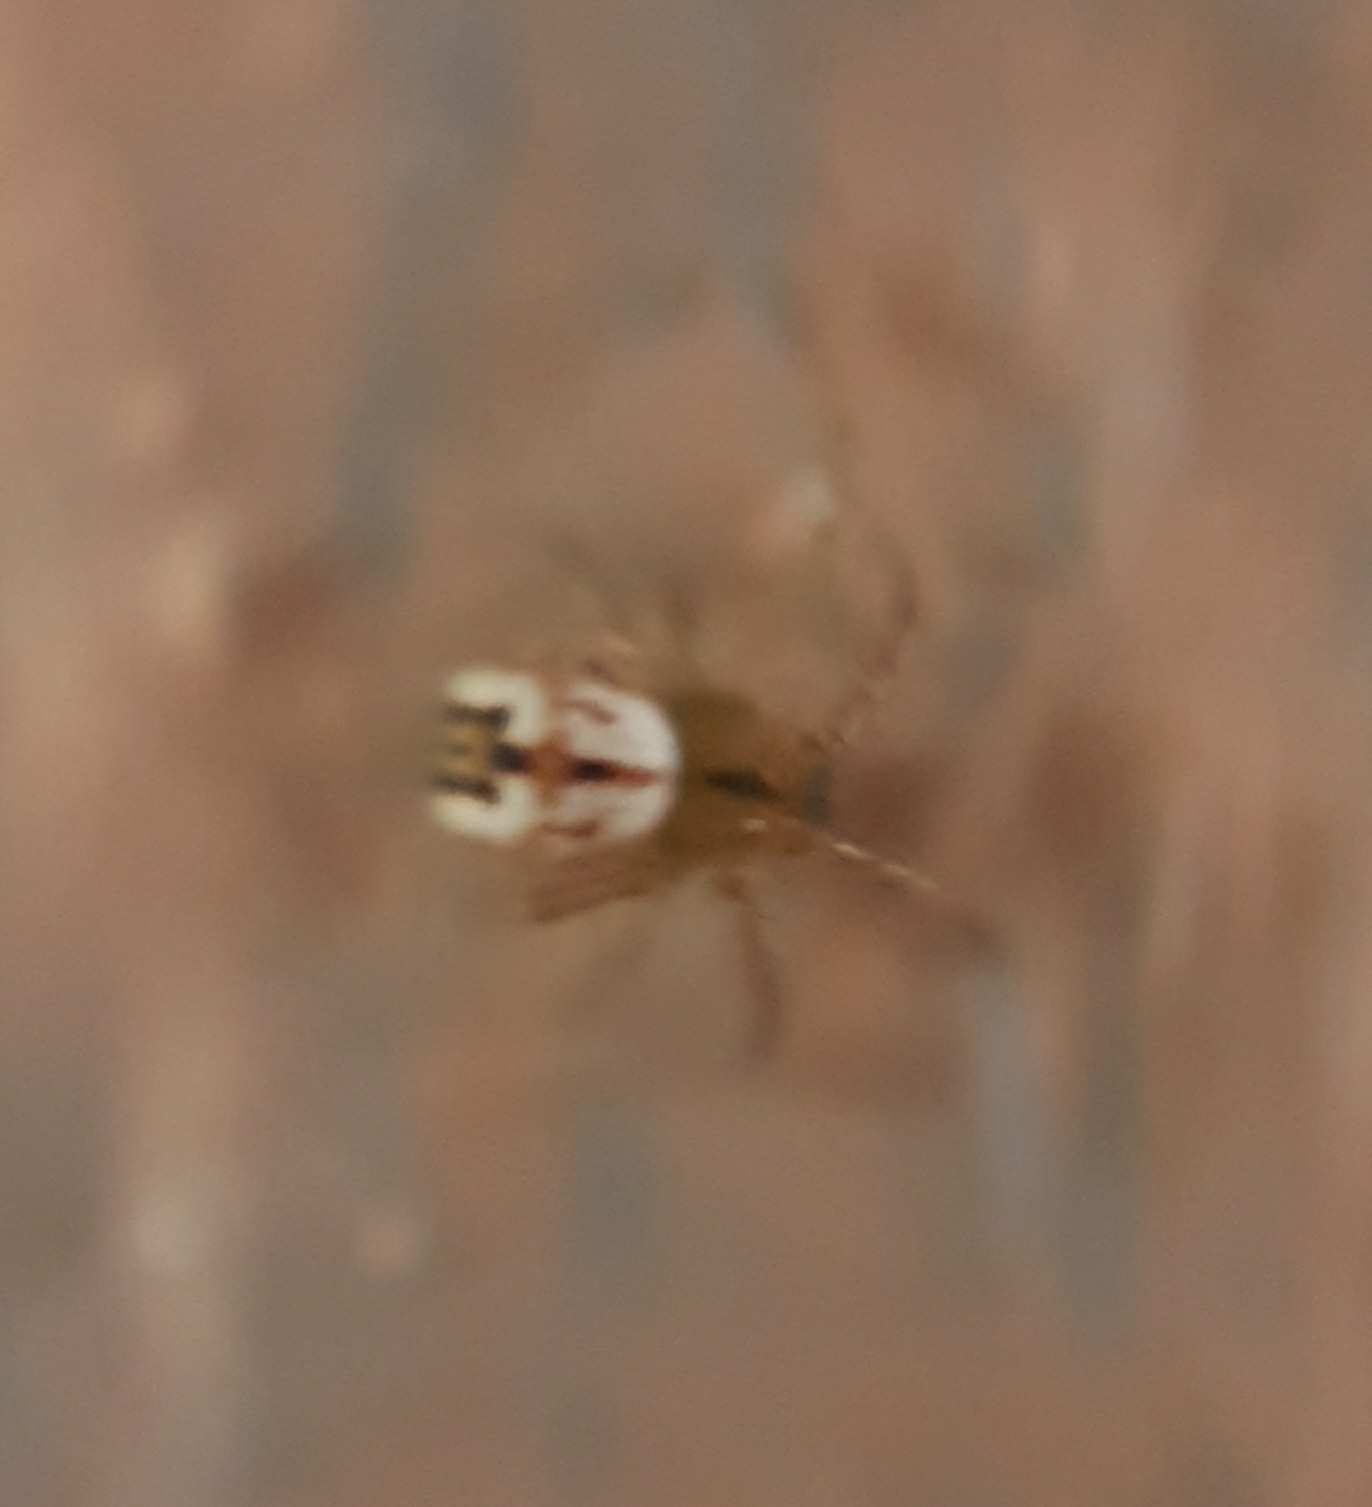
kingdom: Animalia
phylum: Arthropoda
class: Arachnida
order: Araneae
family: Araneidae
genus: Mangora
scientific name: Mangora acalypha
